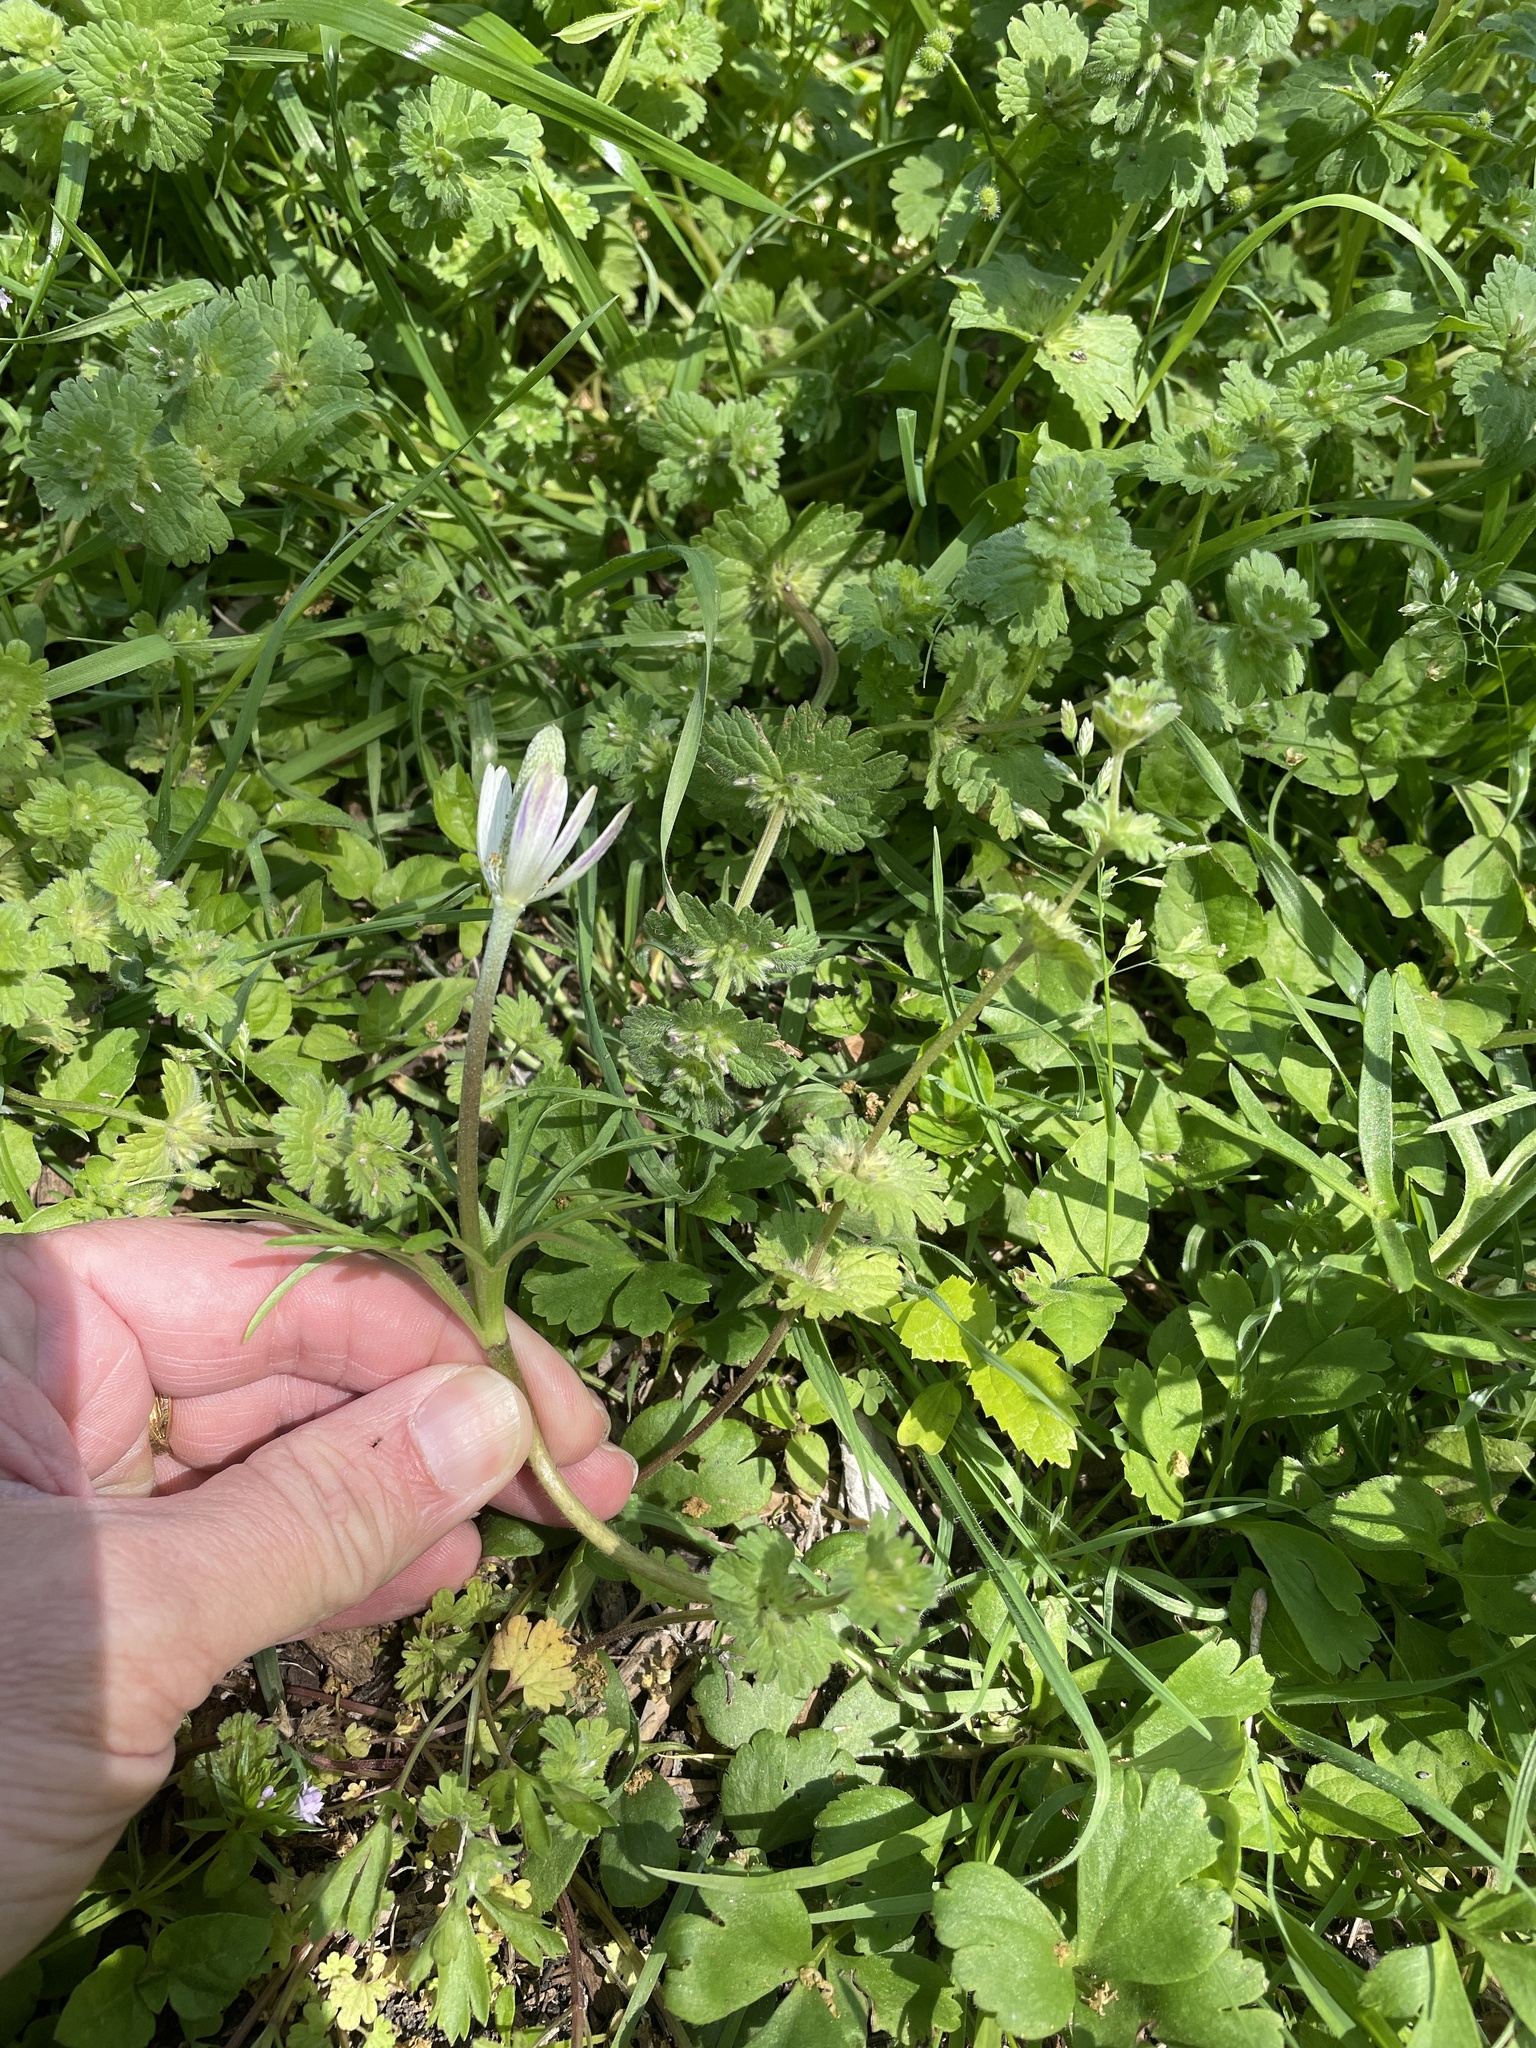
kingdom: Plantae
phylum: Tracheophyta
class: Magnoliopsida
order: Ranunculales
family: Ranunculaceae
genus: Anemone
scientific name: Anemone berlandieri
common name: Ten-petal anemone
